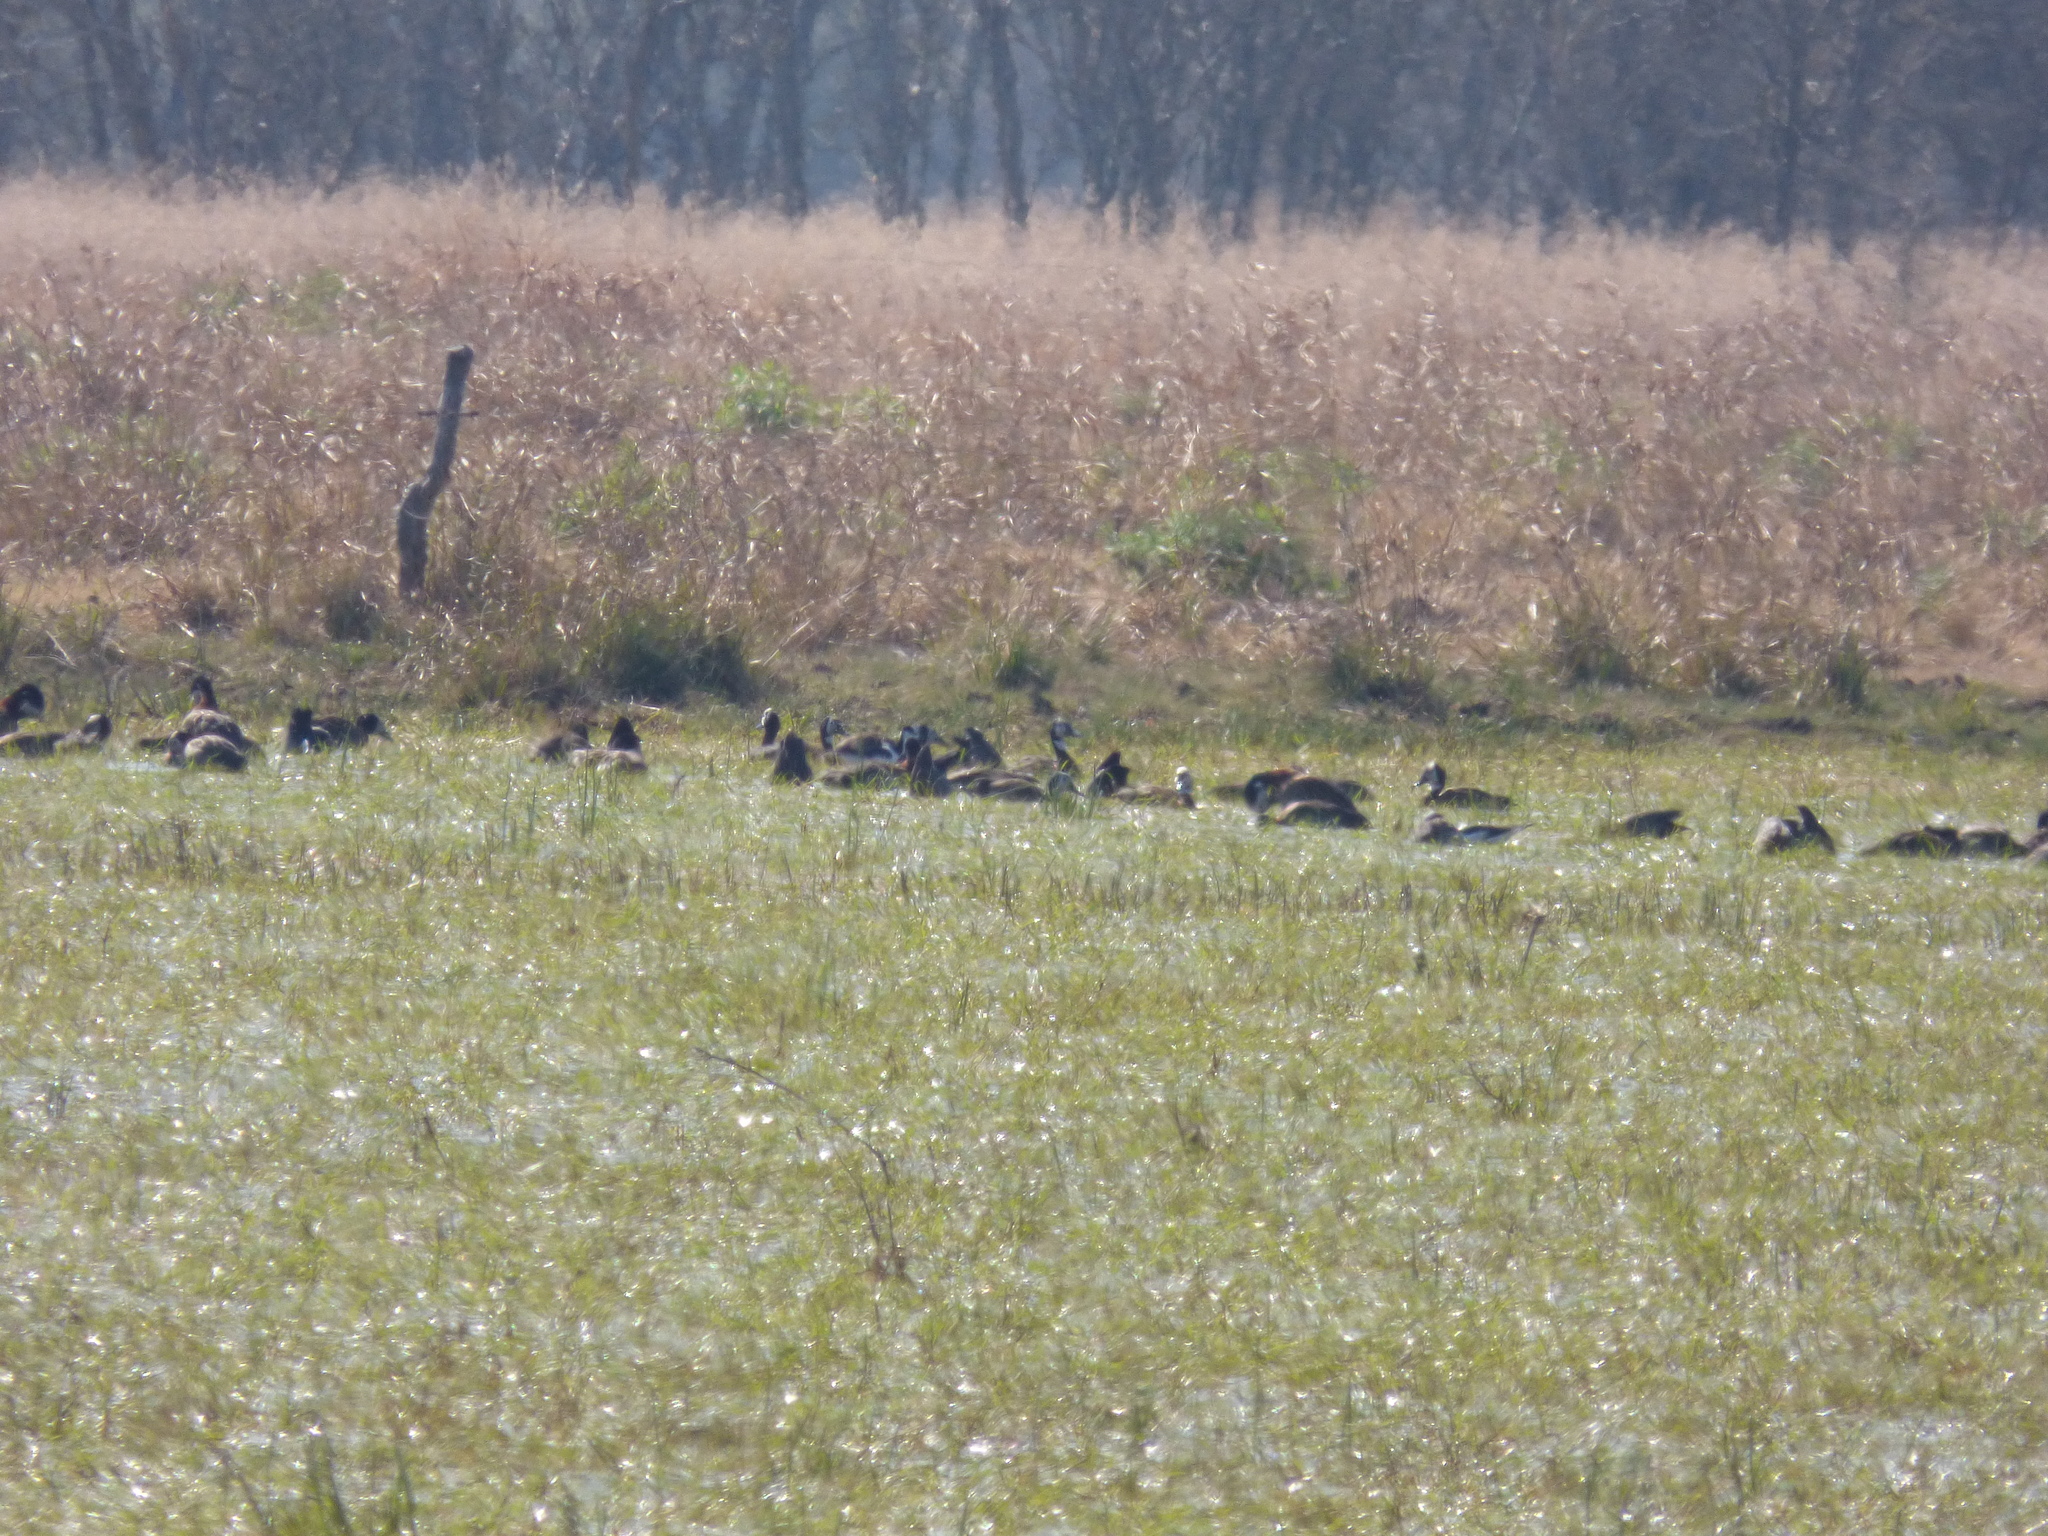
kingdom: Animalia
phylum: Chordata
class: Aves
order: Anseriformes
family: Anatidae
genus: Dendrocygna
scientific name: Dendrocygna viduata
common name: White-faced whistling duck
